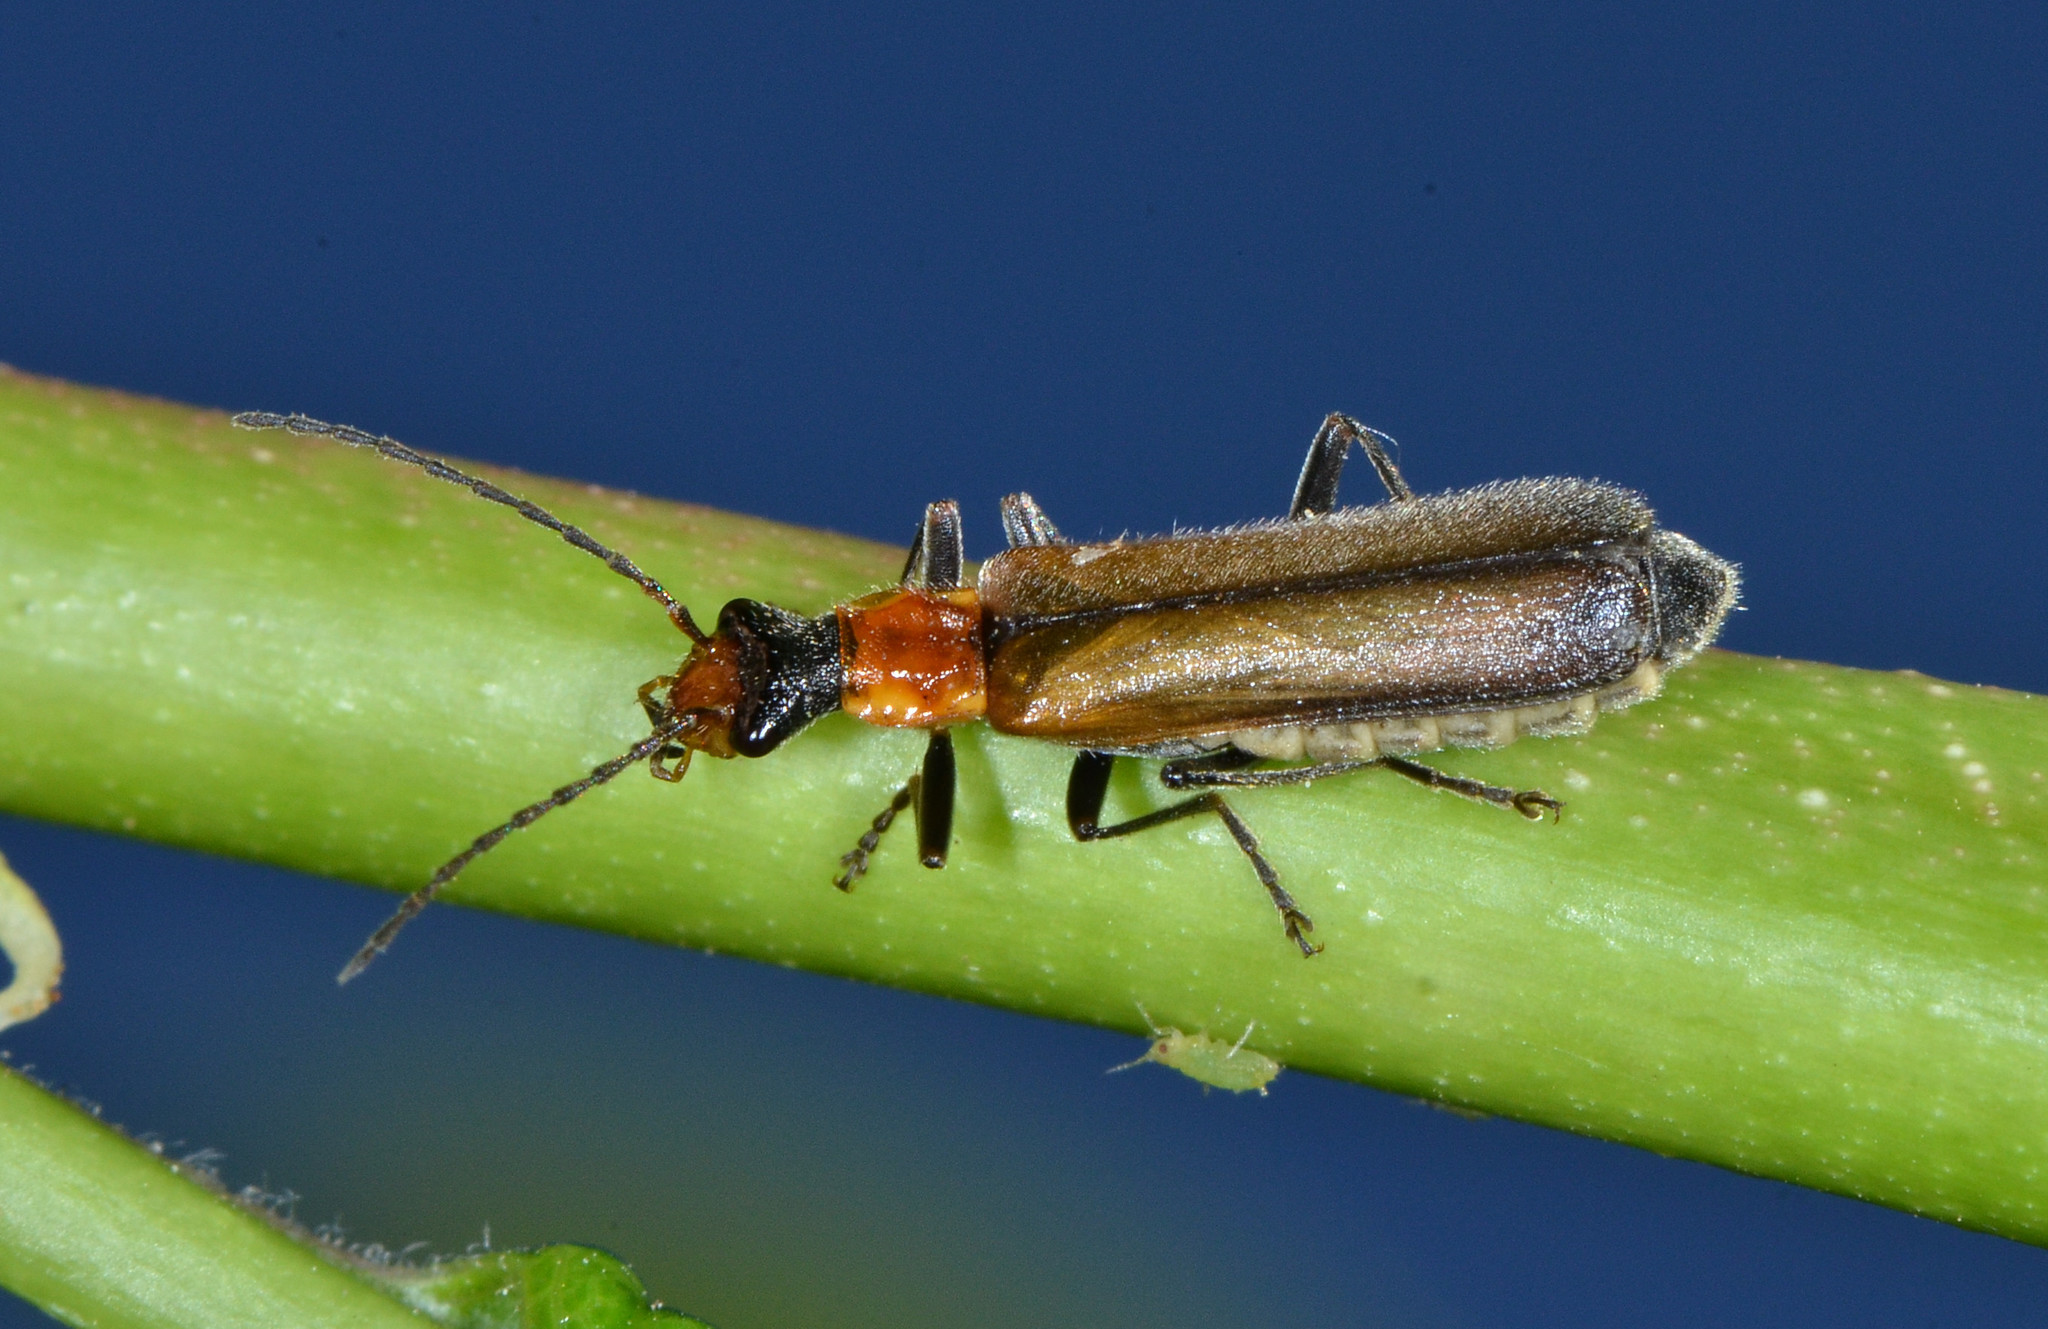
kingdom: Animalia
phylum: Arthropoda
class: Insecta
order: Coleoptera
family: Cantharidae
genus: Dichelotarsus
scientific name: Dichelotarsus cavicollis
